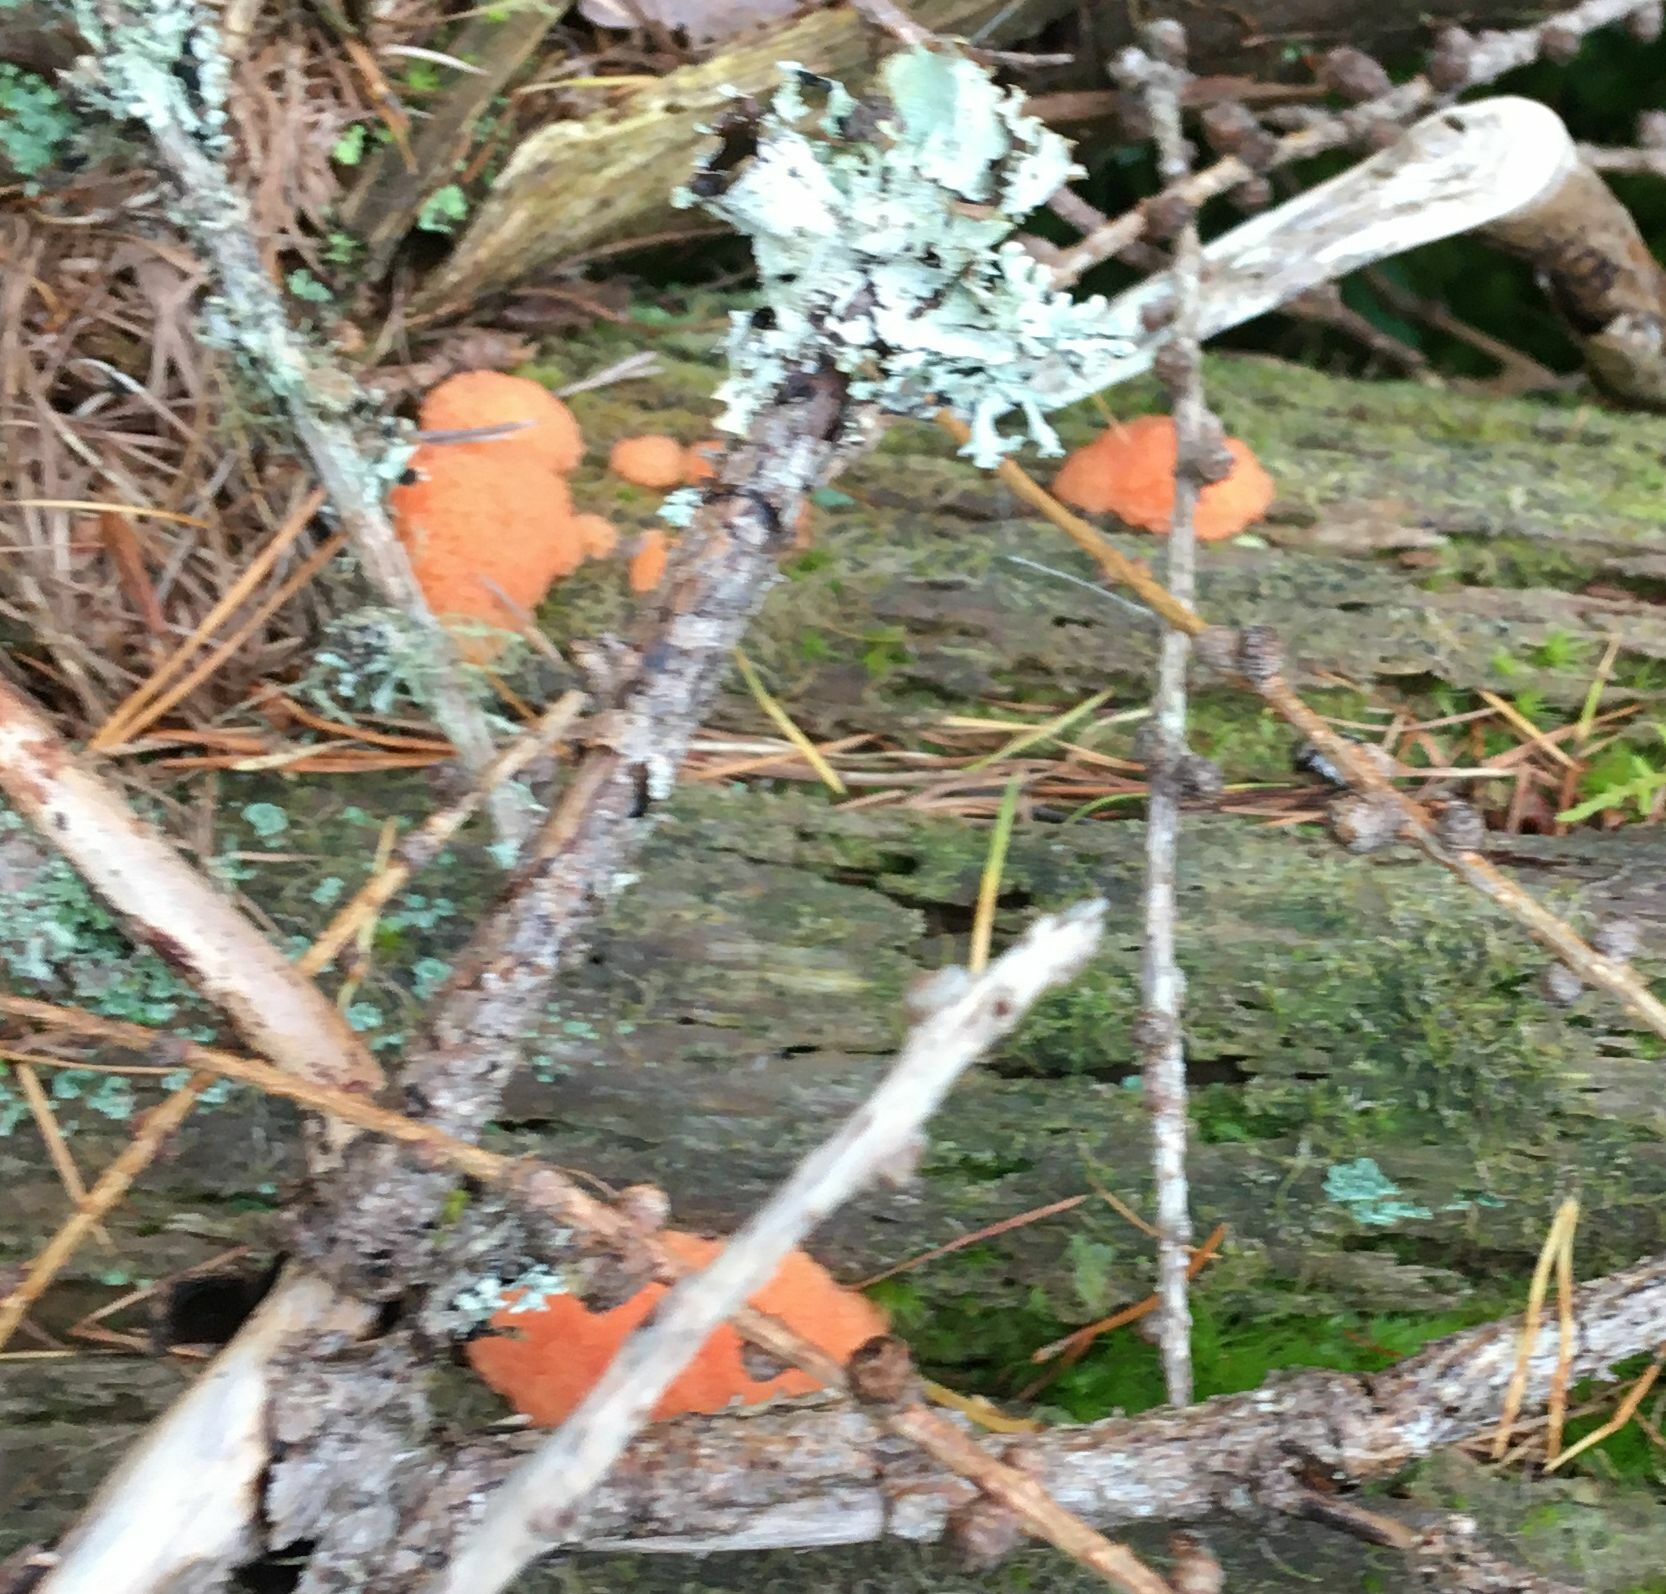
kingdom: Protozoa
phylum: Mycetozoa
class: Myxomycetes
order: Cribrariales
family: Tubiferaceae
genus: Tubifera
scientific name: Tubifera ferruginosa
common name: Red raspberry slime mold
